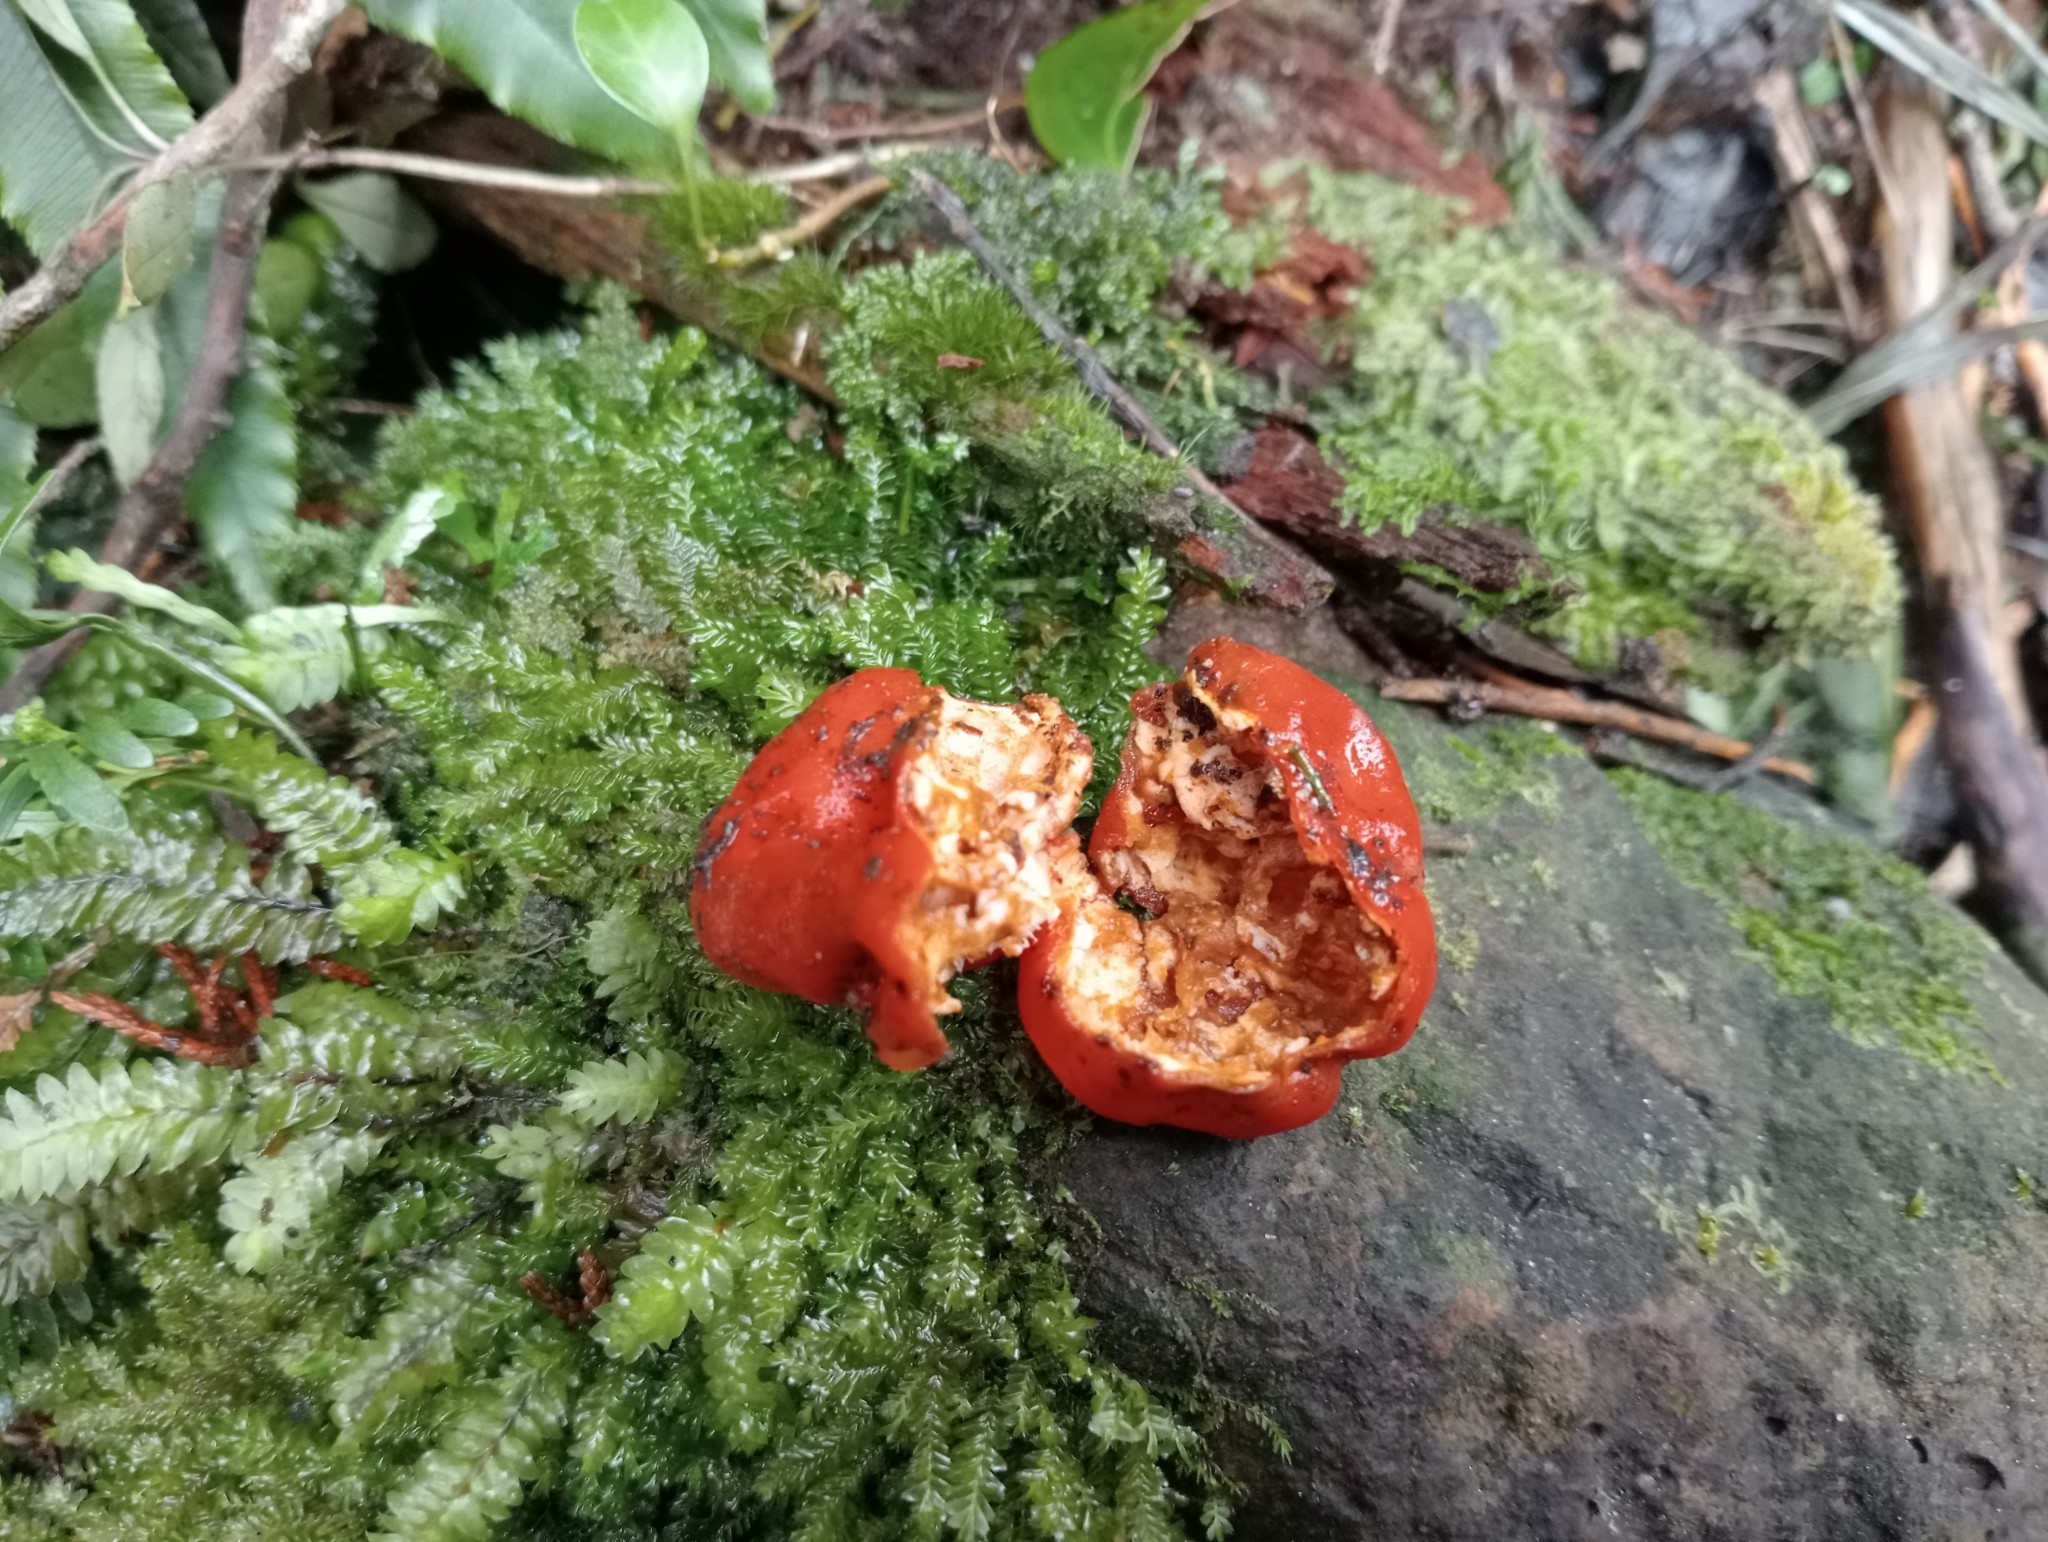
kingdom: Fungi
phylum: Ascomycota
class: Pezizomycetes
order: Pezizales
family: Pyronemataceae
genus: Paurocotylis
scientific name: Paurocotylis pila
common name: Scarlet berry truffle
